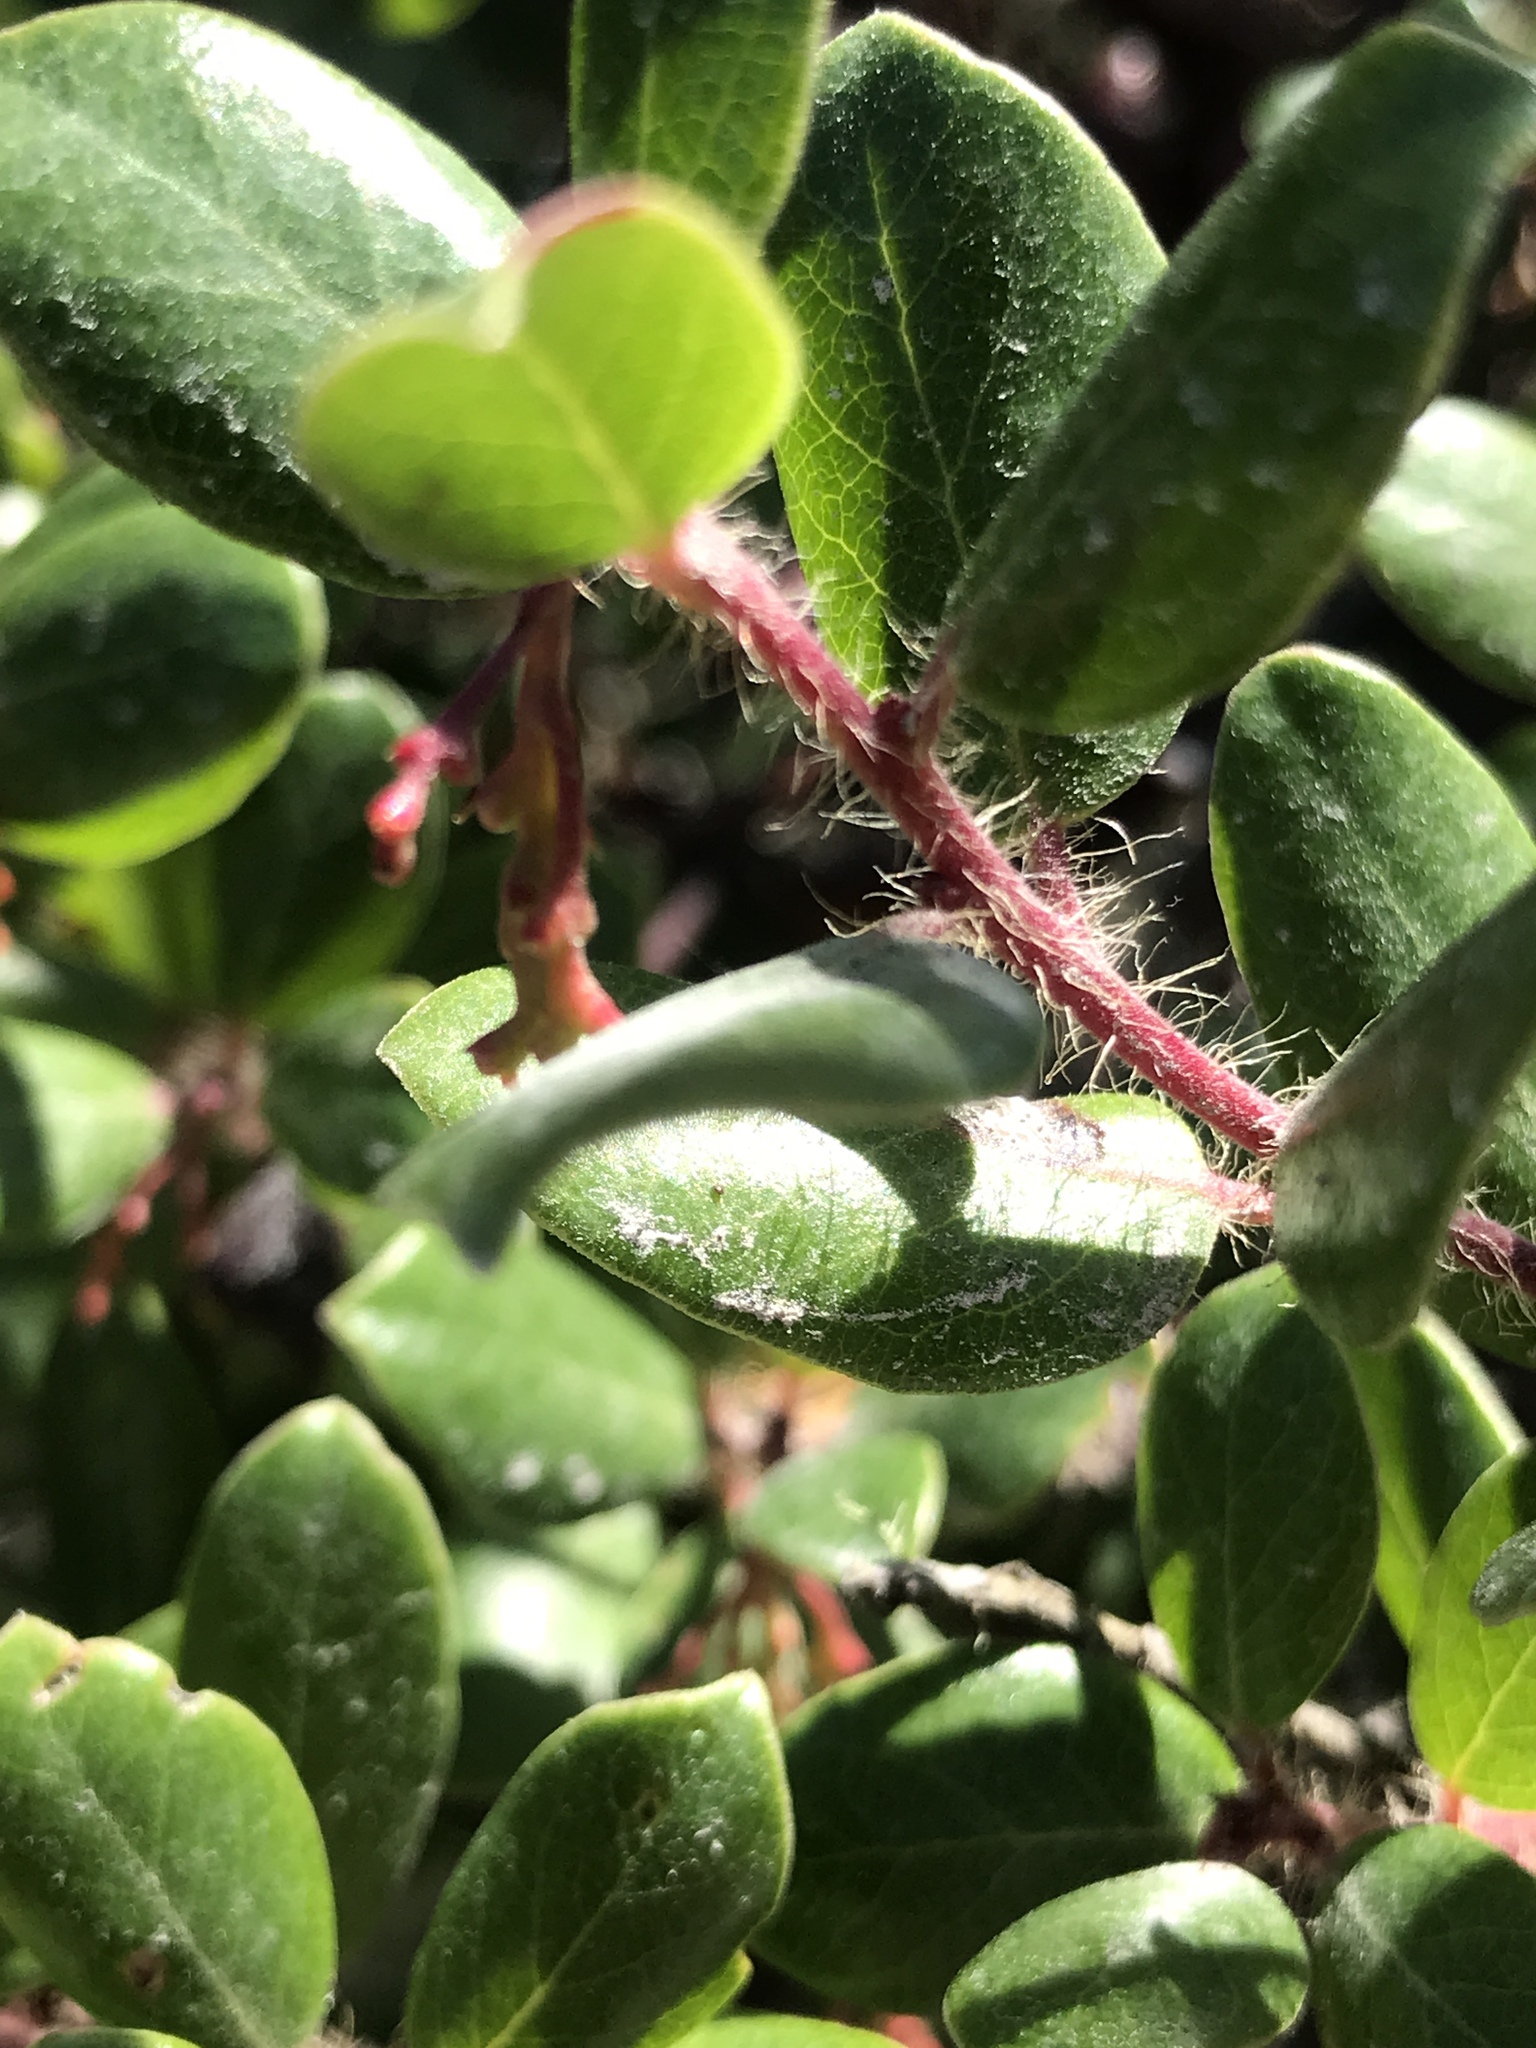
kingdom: Plantae
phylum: Tracheophyta
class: Magnoliopsida
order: Ericales
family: Ericaceae
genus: Arctostaphylos
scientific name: Arctostaphylos crustacea
